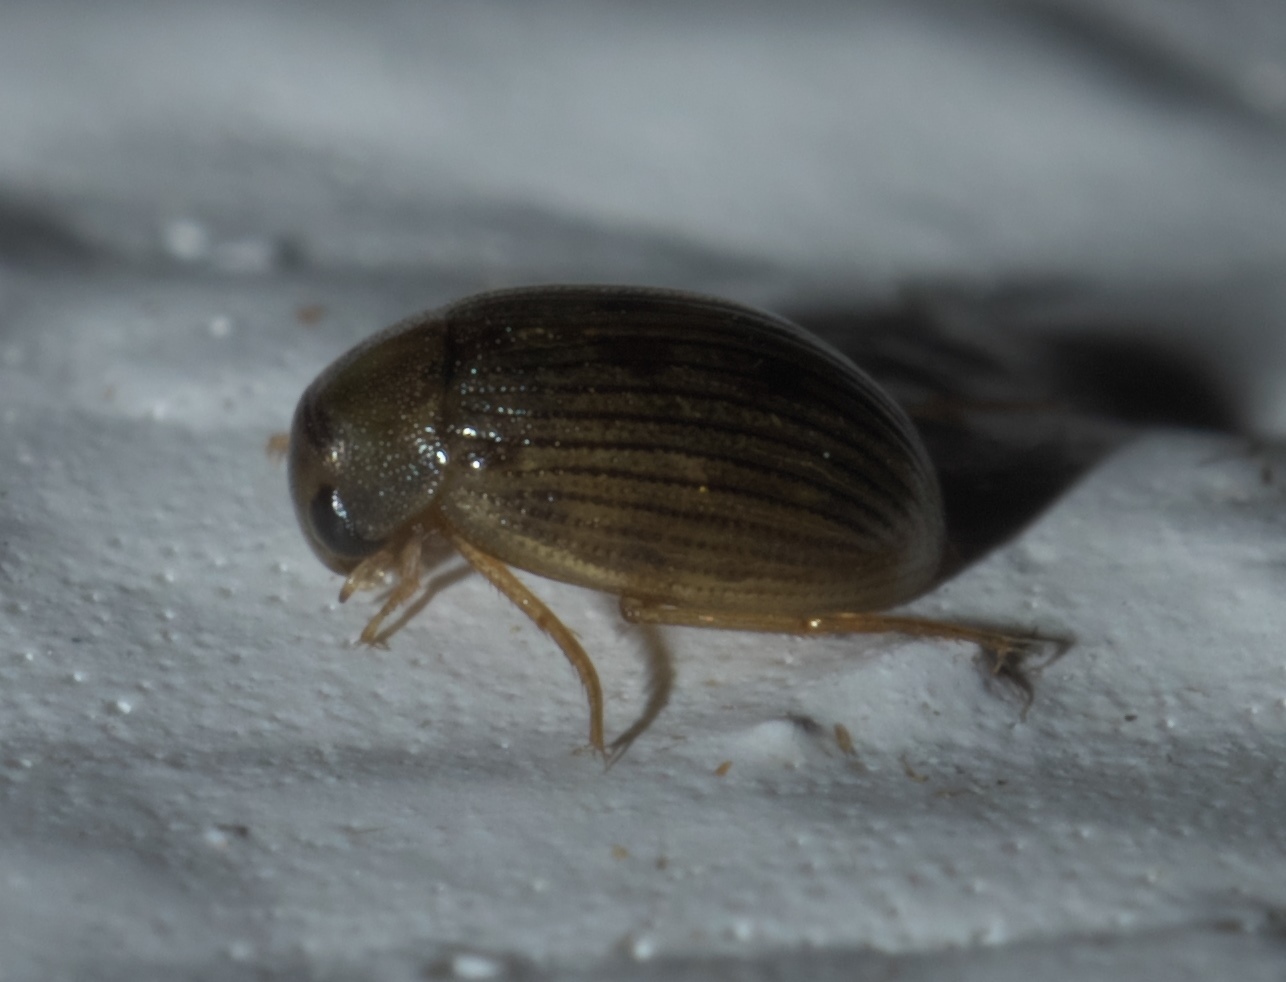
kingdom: Animalia
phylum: Arthropoda
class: Insecta
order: Coleoptera
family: Hydrophilidae
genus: Berosus
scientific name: Berosus exiguus
